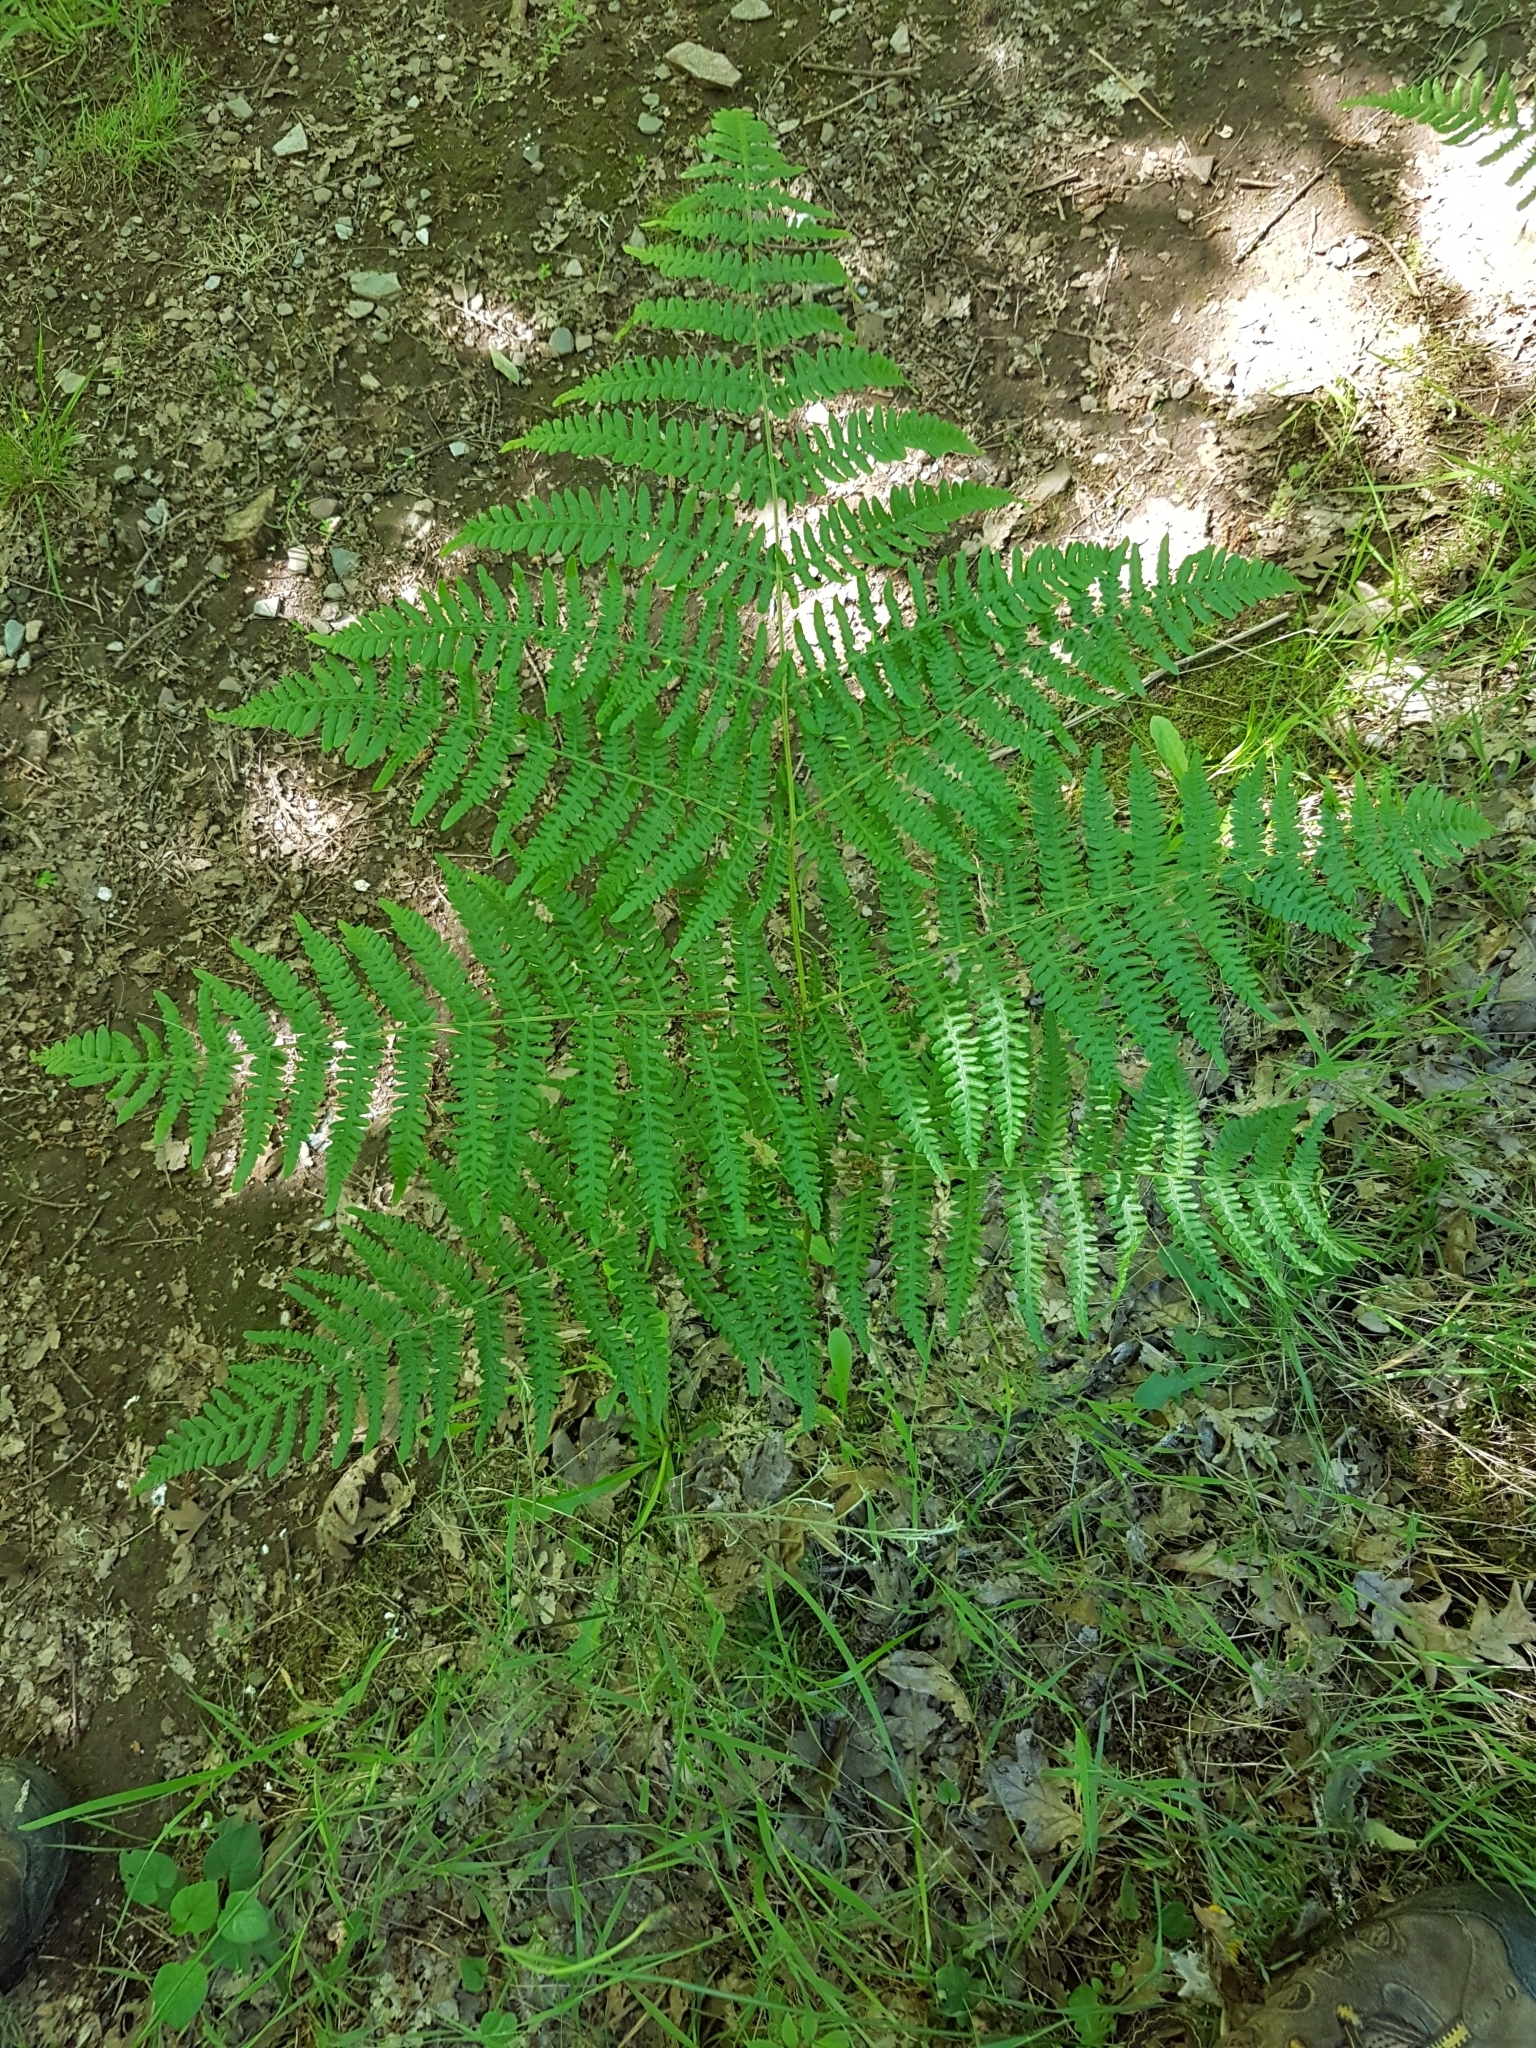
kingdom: Plantae
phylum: Tracheophyta
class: Polypodiopsida
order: Polypodiales
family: Dennstaedtiaceae
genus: Pteridium
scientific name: Pteridium aquilinum
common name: Bracken
